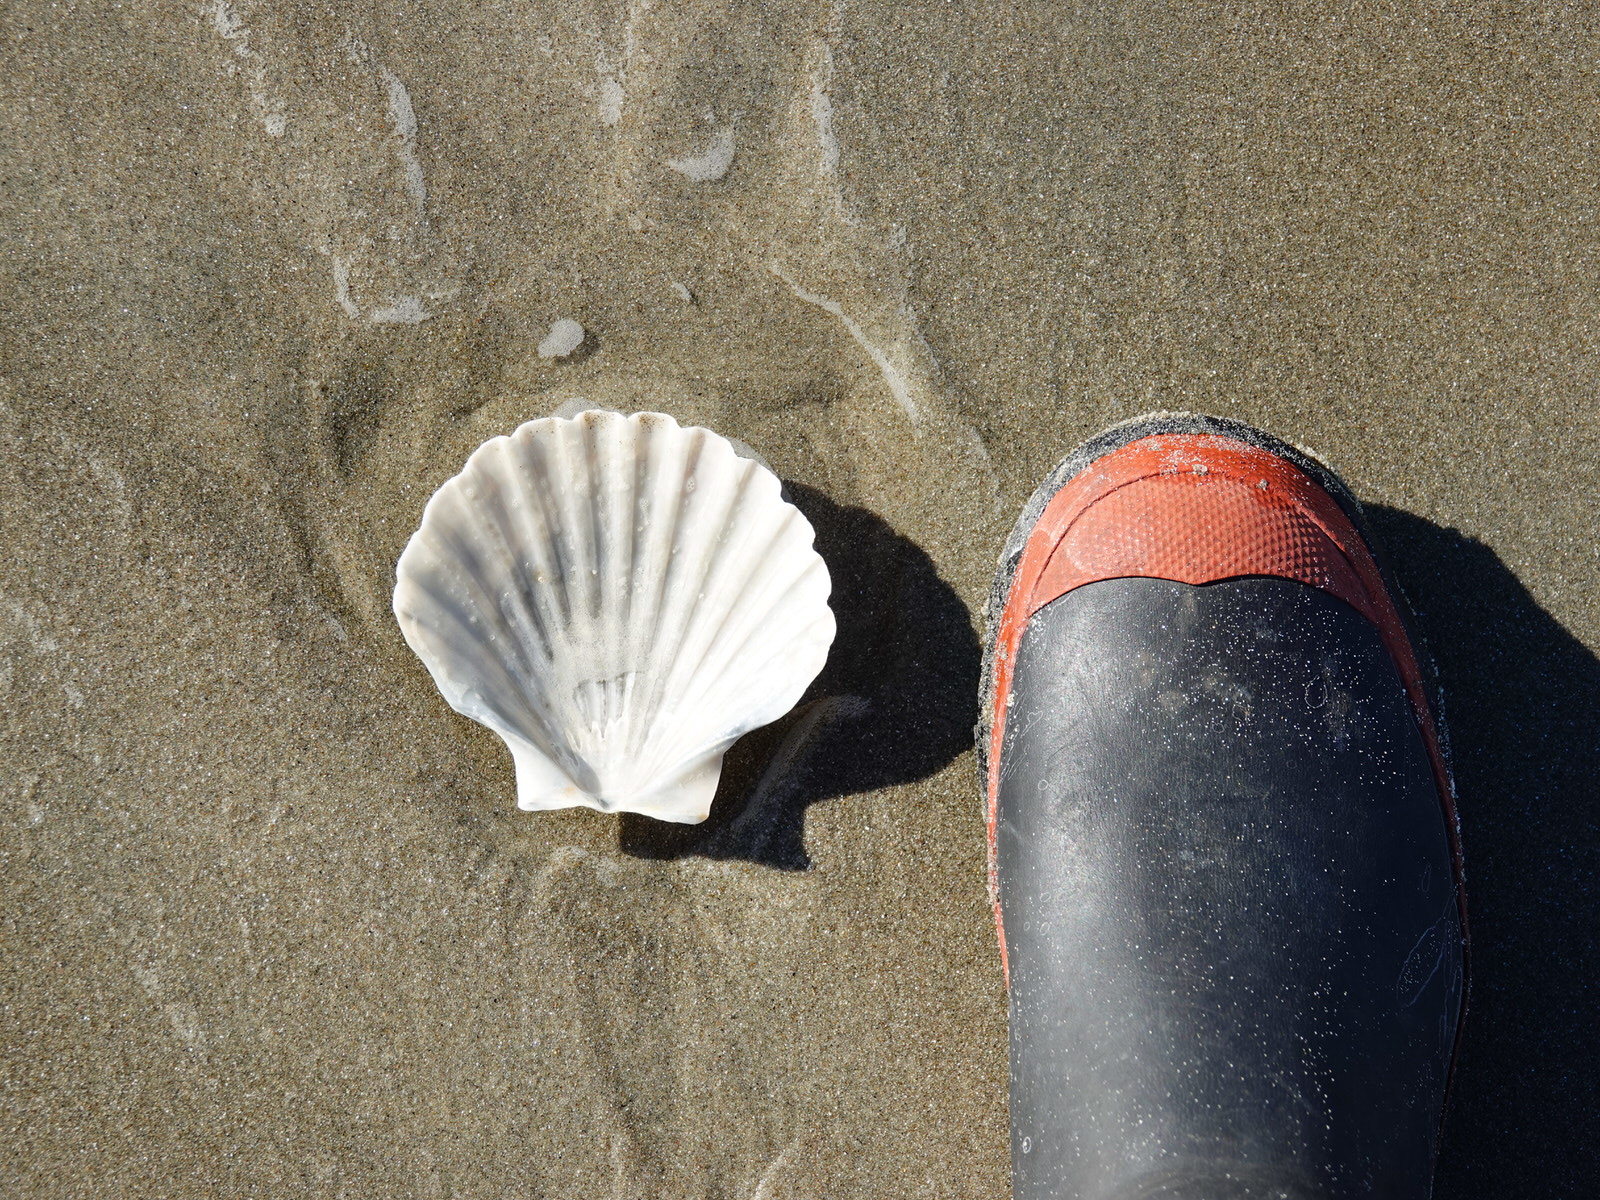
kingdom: Animalia
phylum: Mollusca
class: Bivalvia
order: Pectinida
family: Pectinidae
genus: Pecten
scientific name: Pecten novaezelandiae
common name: New zealand scallop
